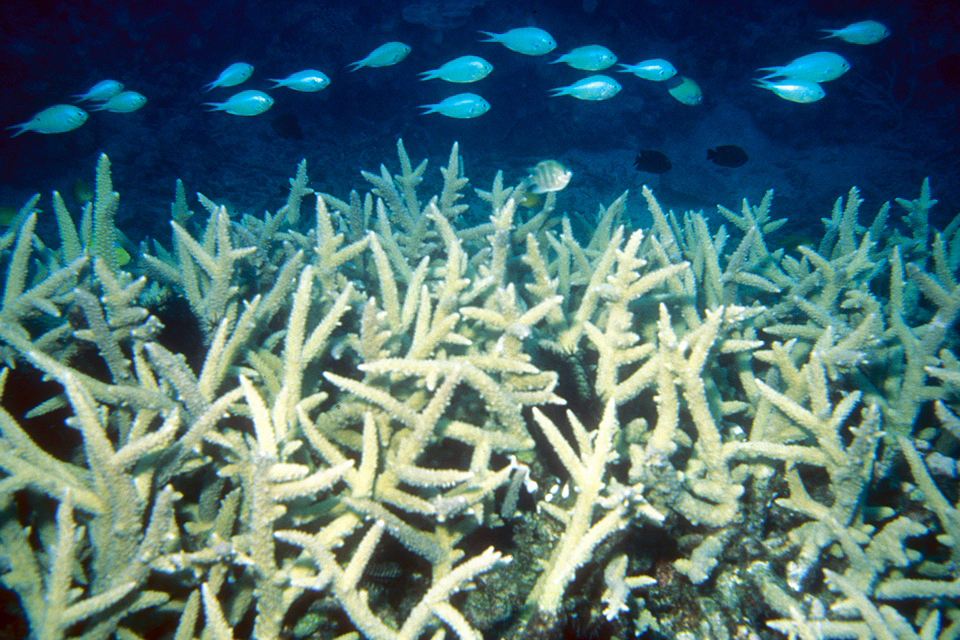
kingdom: Animalia
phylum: Chordata
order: Perciformes
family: Pomacentridae
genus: Chromis
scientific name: Chromis atripectoralis
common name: Black-axil chromis
